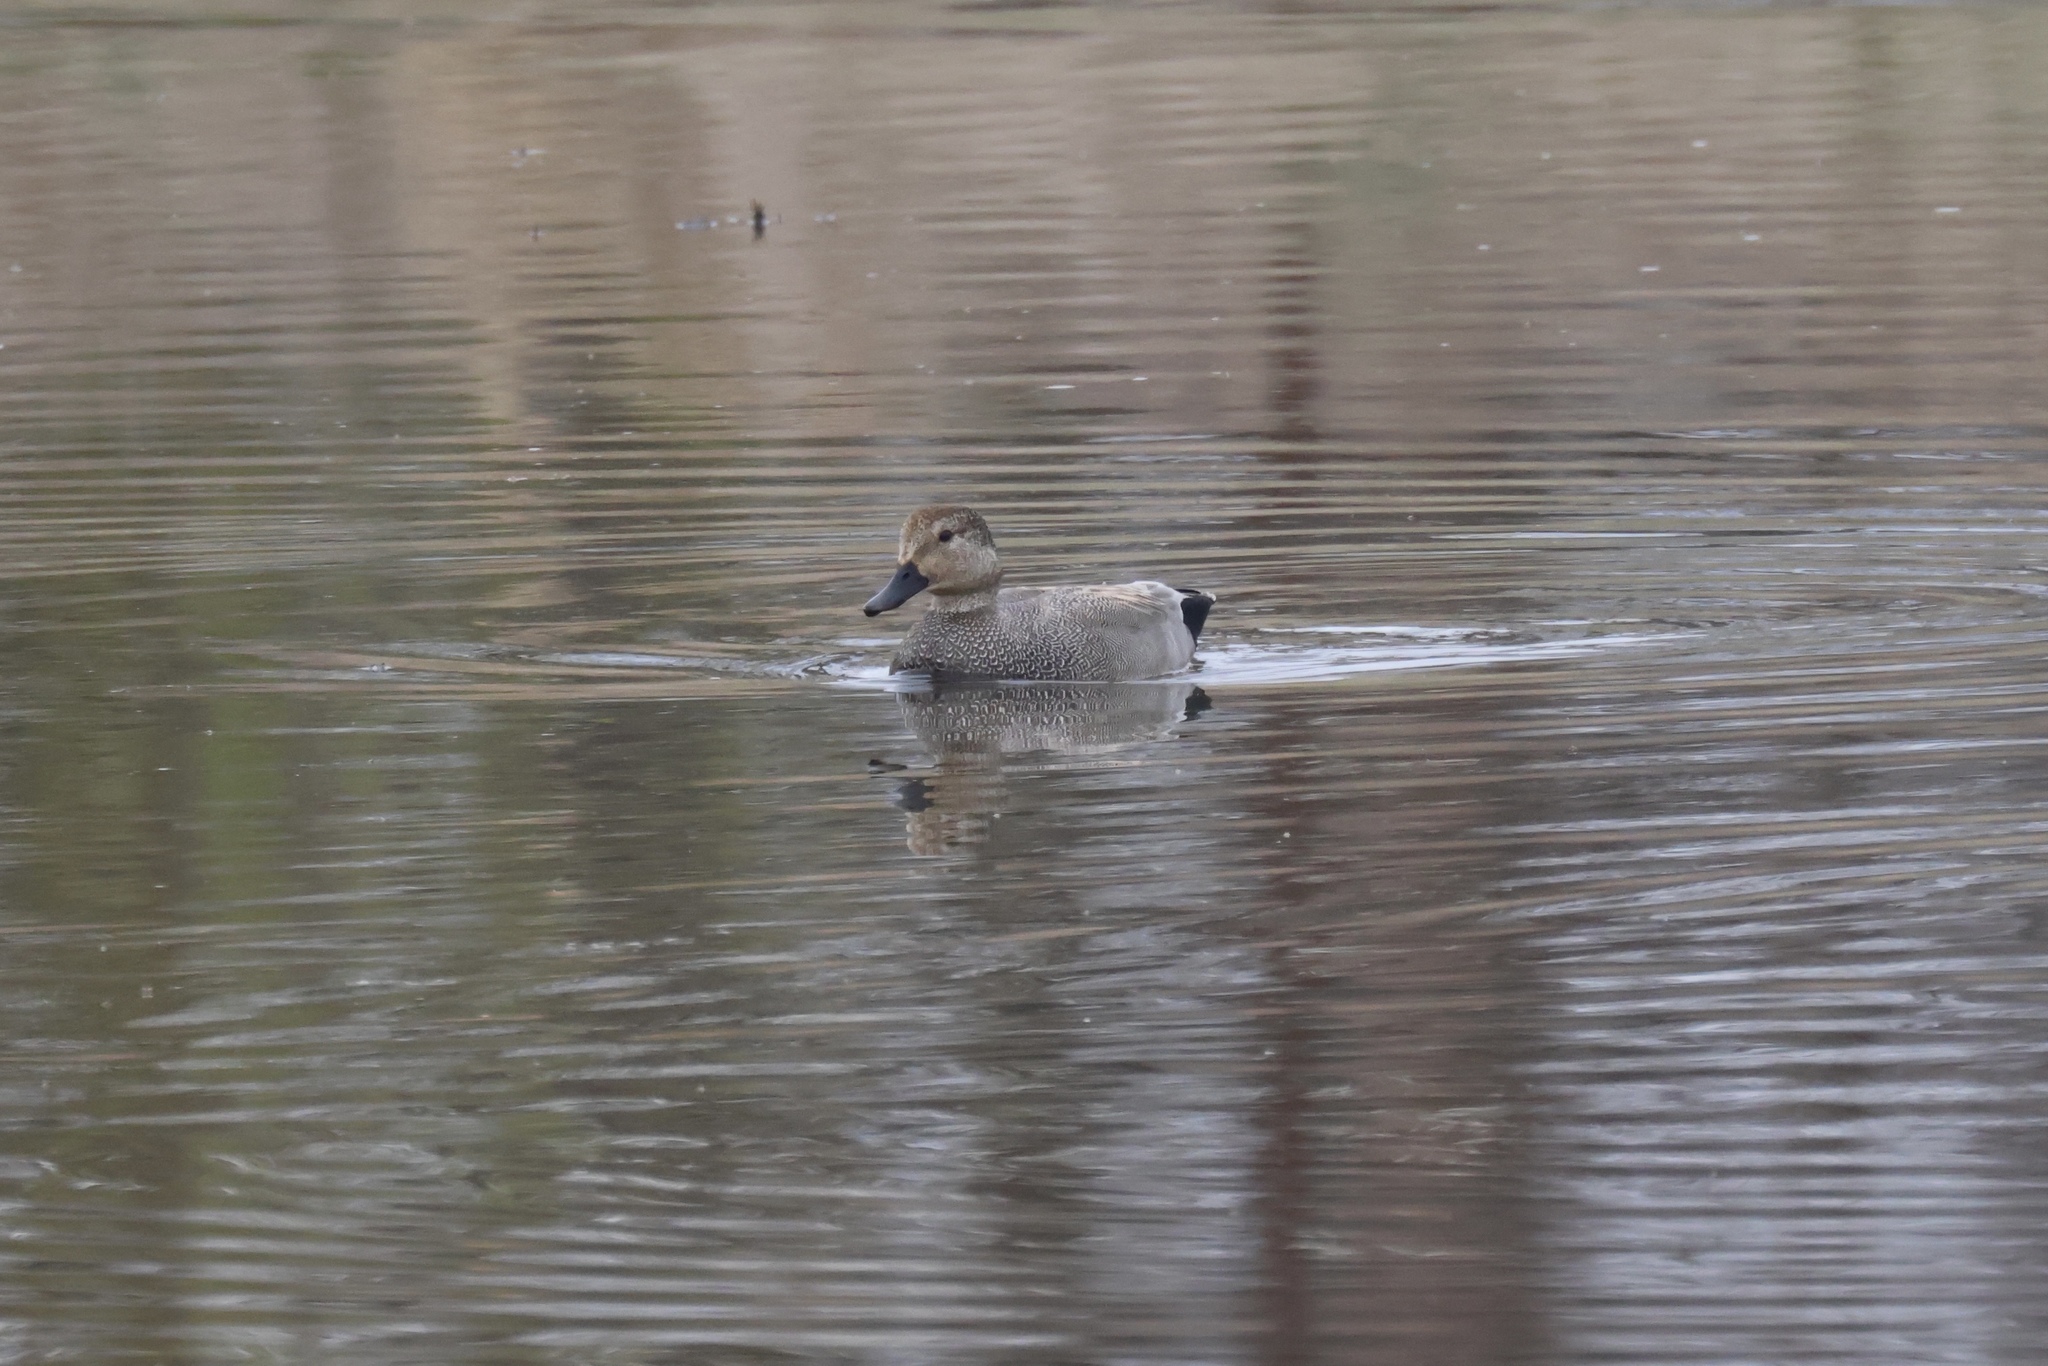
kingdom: Animalia
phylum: Chordata
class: Aves
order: Anseriformes
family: Anatidae
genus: Mareca
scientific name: Mareca strepera
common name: Gadwall
